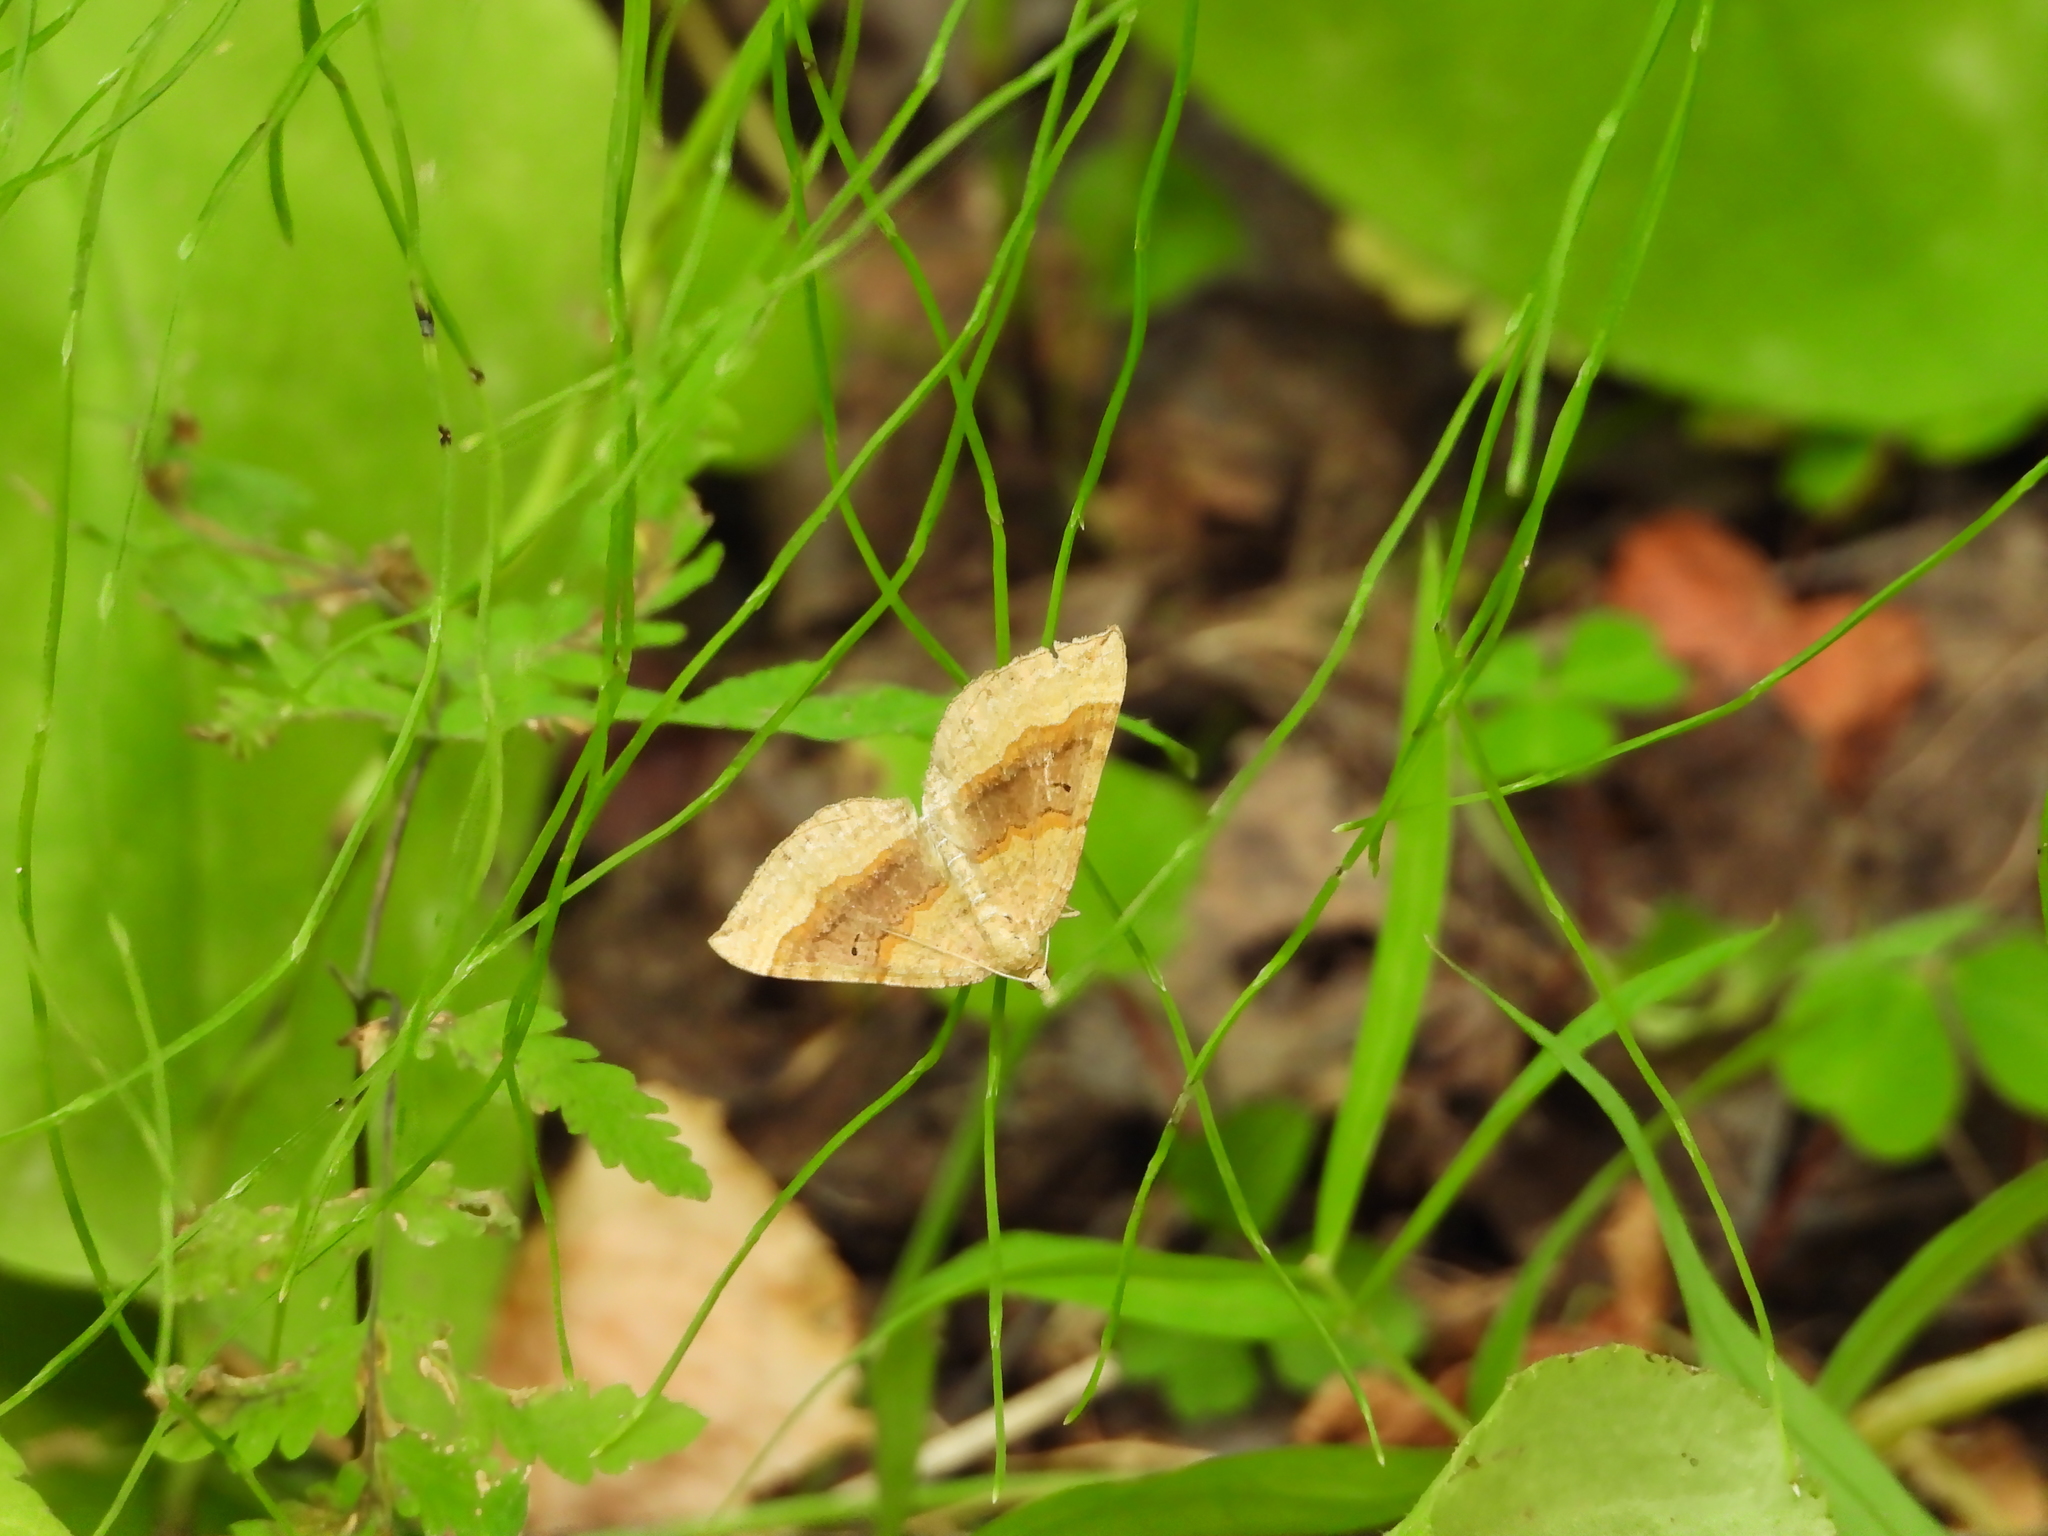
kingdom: Animalia
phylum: Arthropoda
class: Insecta
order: Lepidoptera
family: Geometridae
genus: Scotopteryx
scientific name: Scotopteryx chenopodiata
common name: Shaded broad-bar
